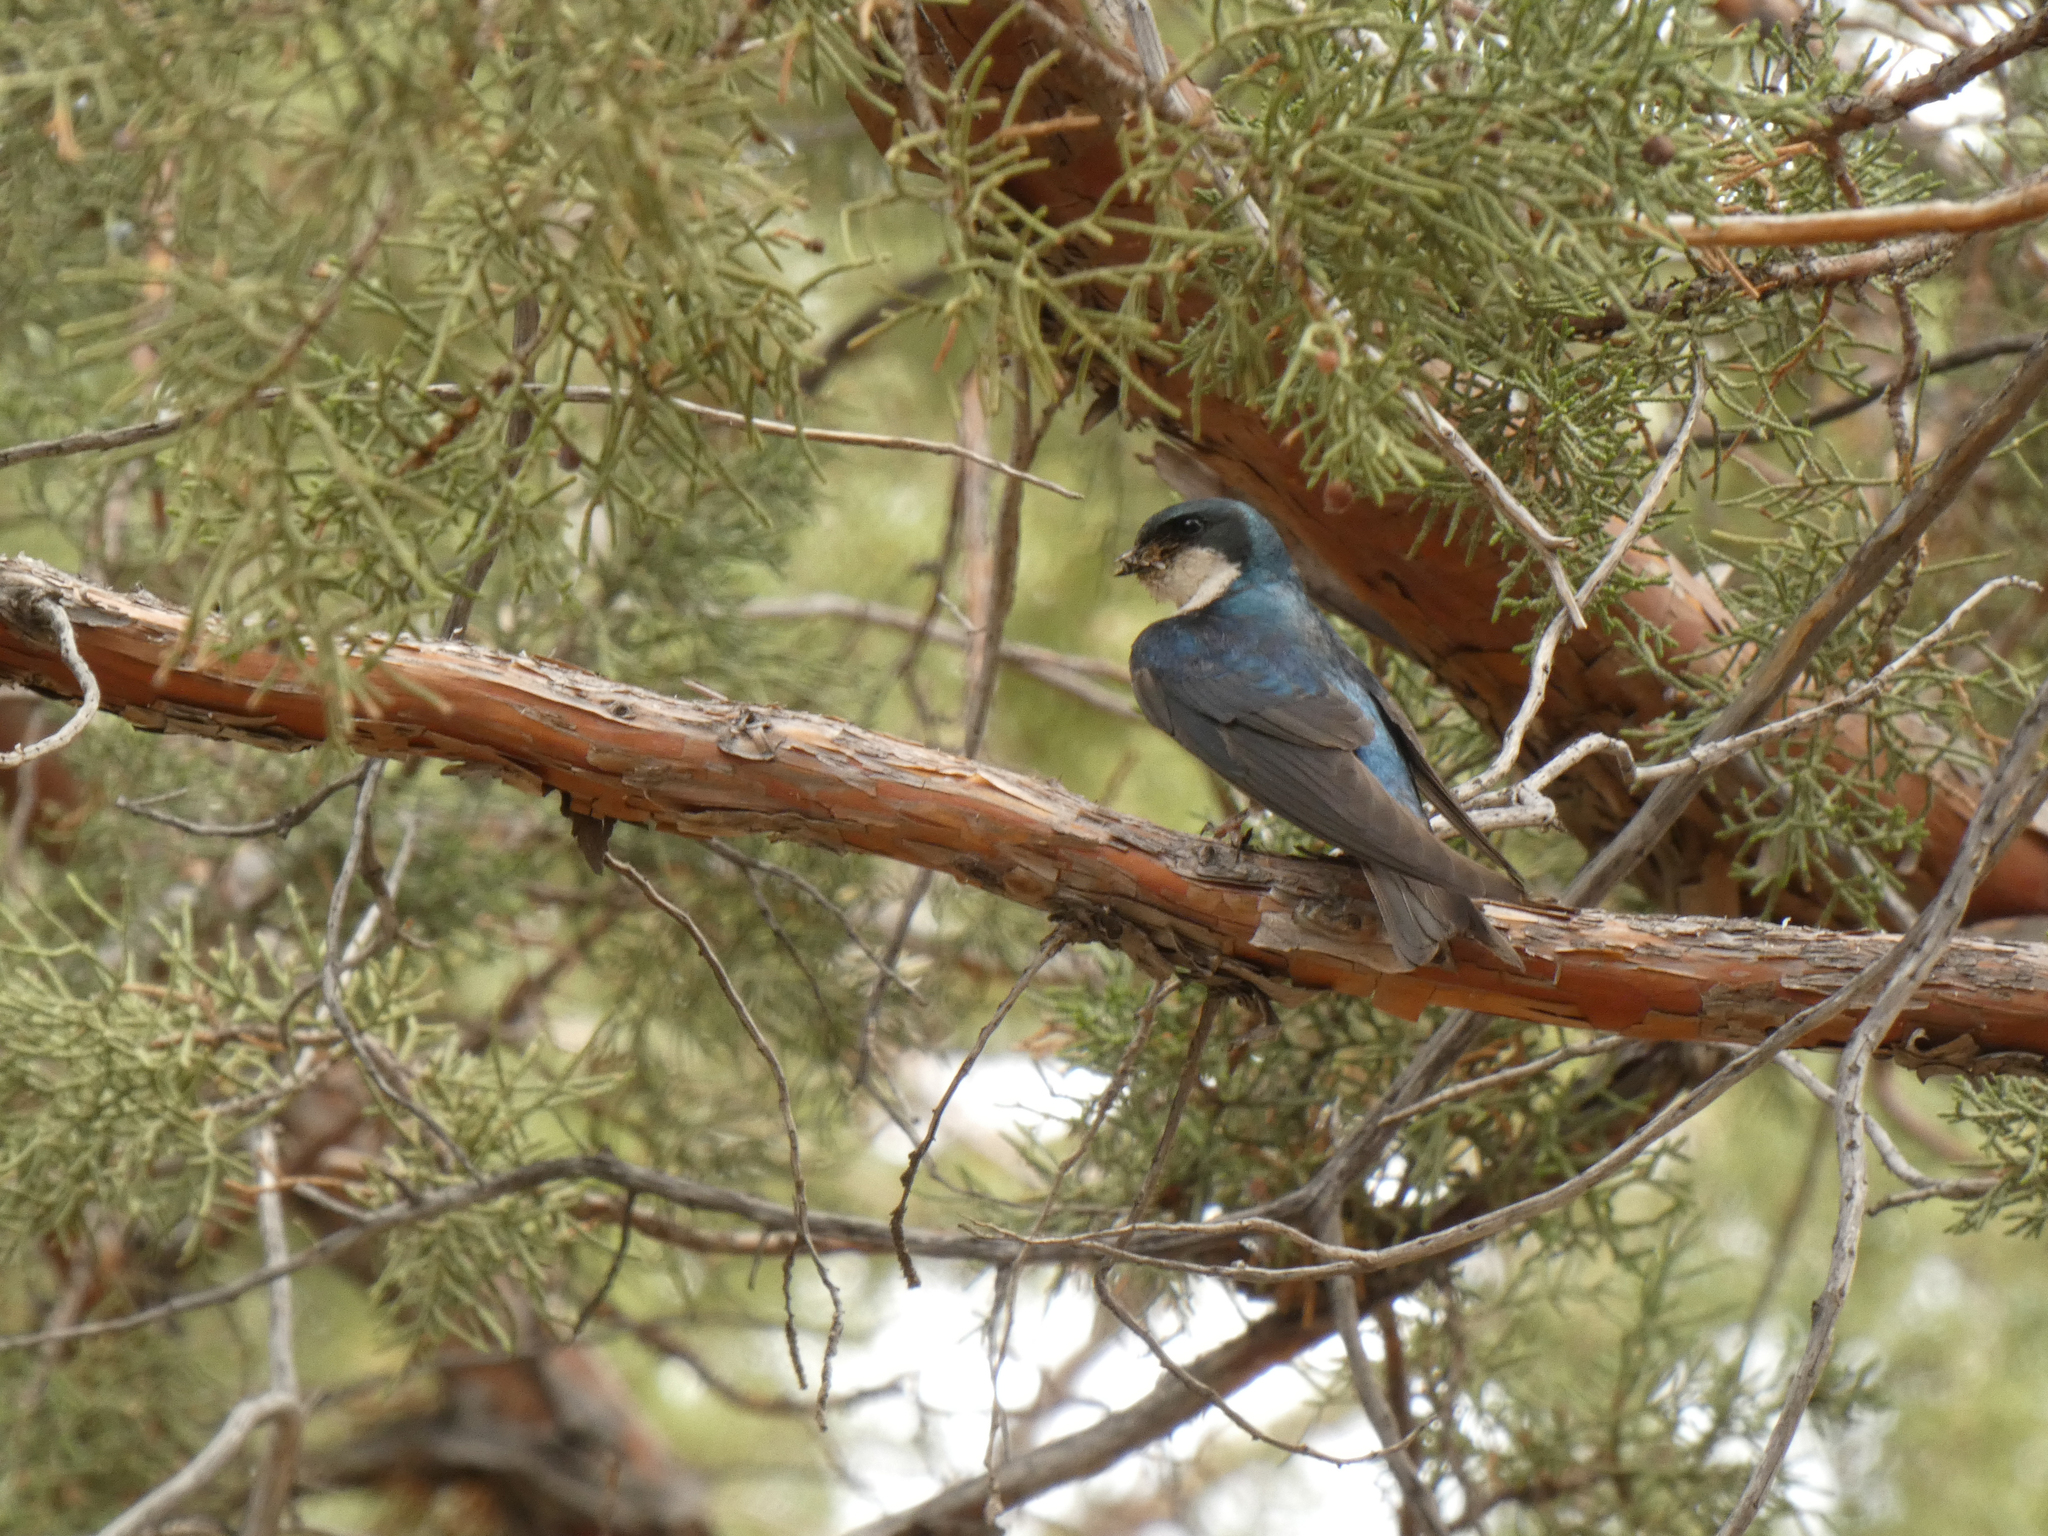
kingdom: Animalia
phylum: Chordata
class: Aves
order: Passeriformes
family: Hirundinidae
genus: Tachycineta
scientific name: Tachycineta bicolor
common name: Tree swallow
